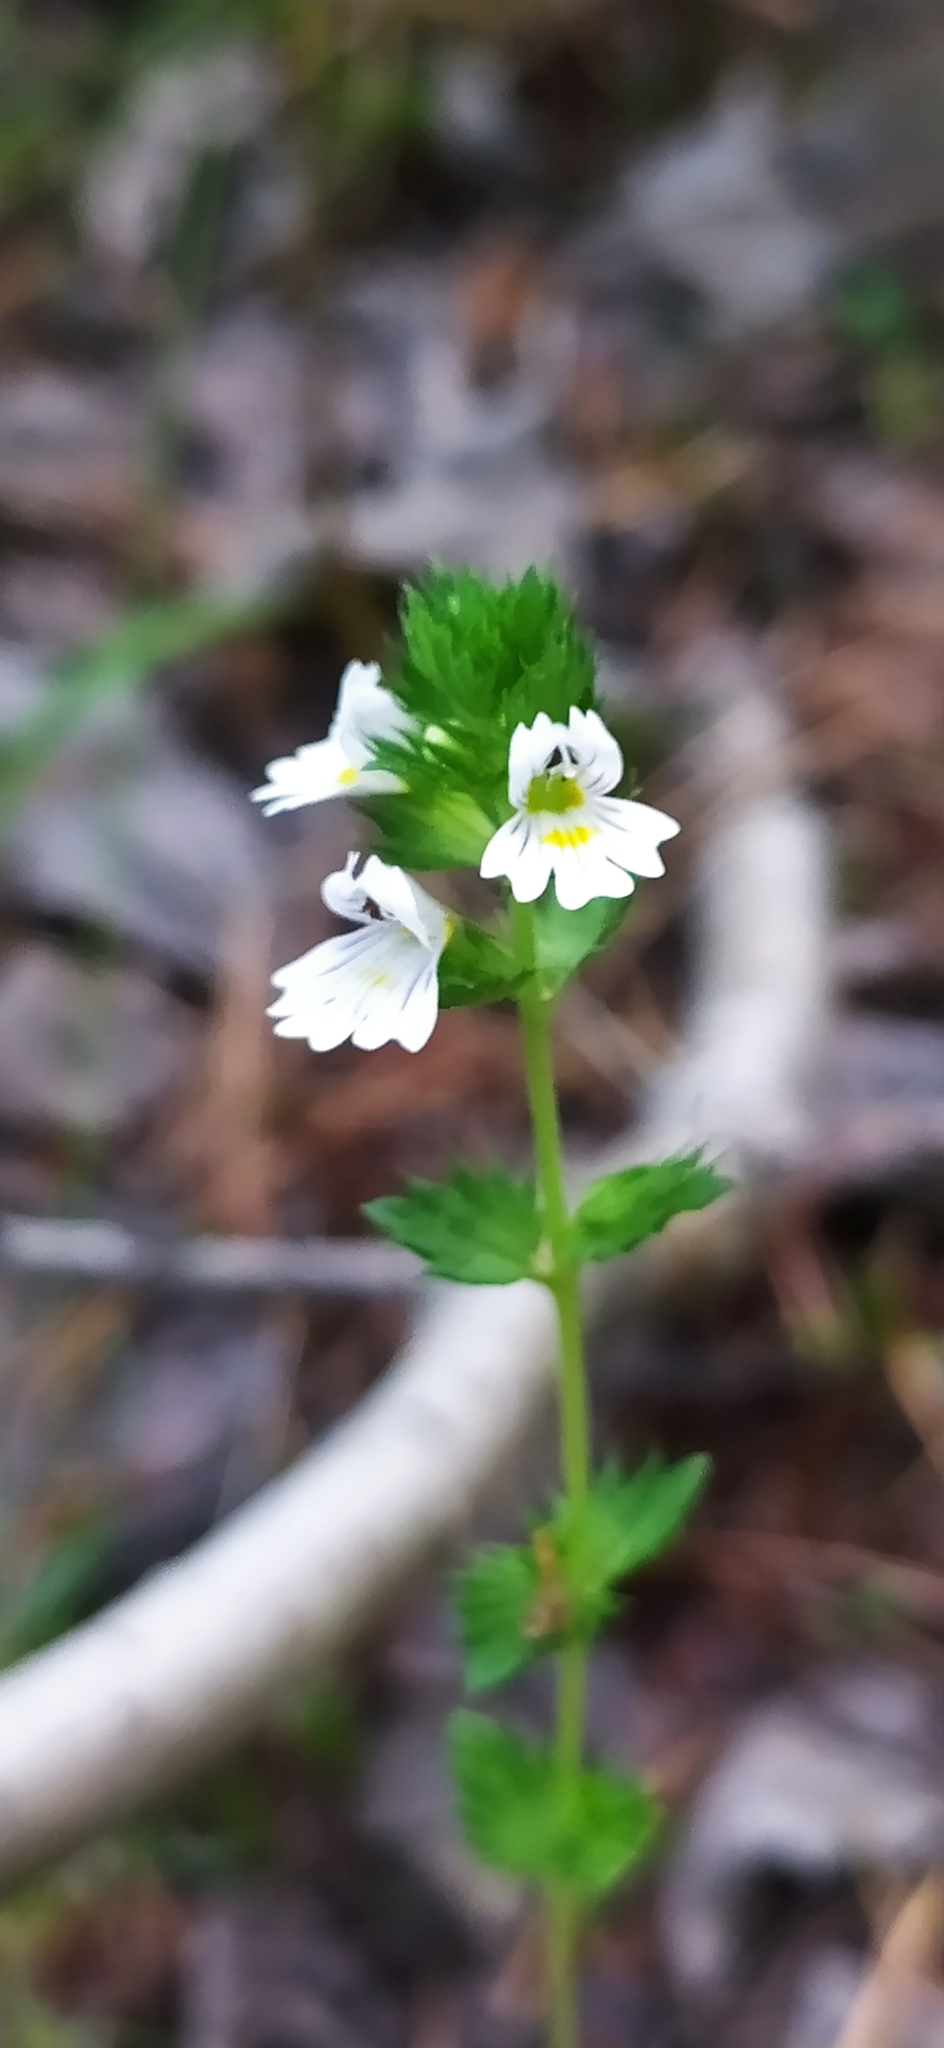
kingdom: Plantae
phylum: Tracheophyta
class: Magnoliopsida
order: Lamiales
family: Orobanchaceae
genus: Euphrasia
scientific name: Euphrasia stricta
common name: Drug eyebright
